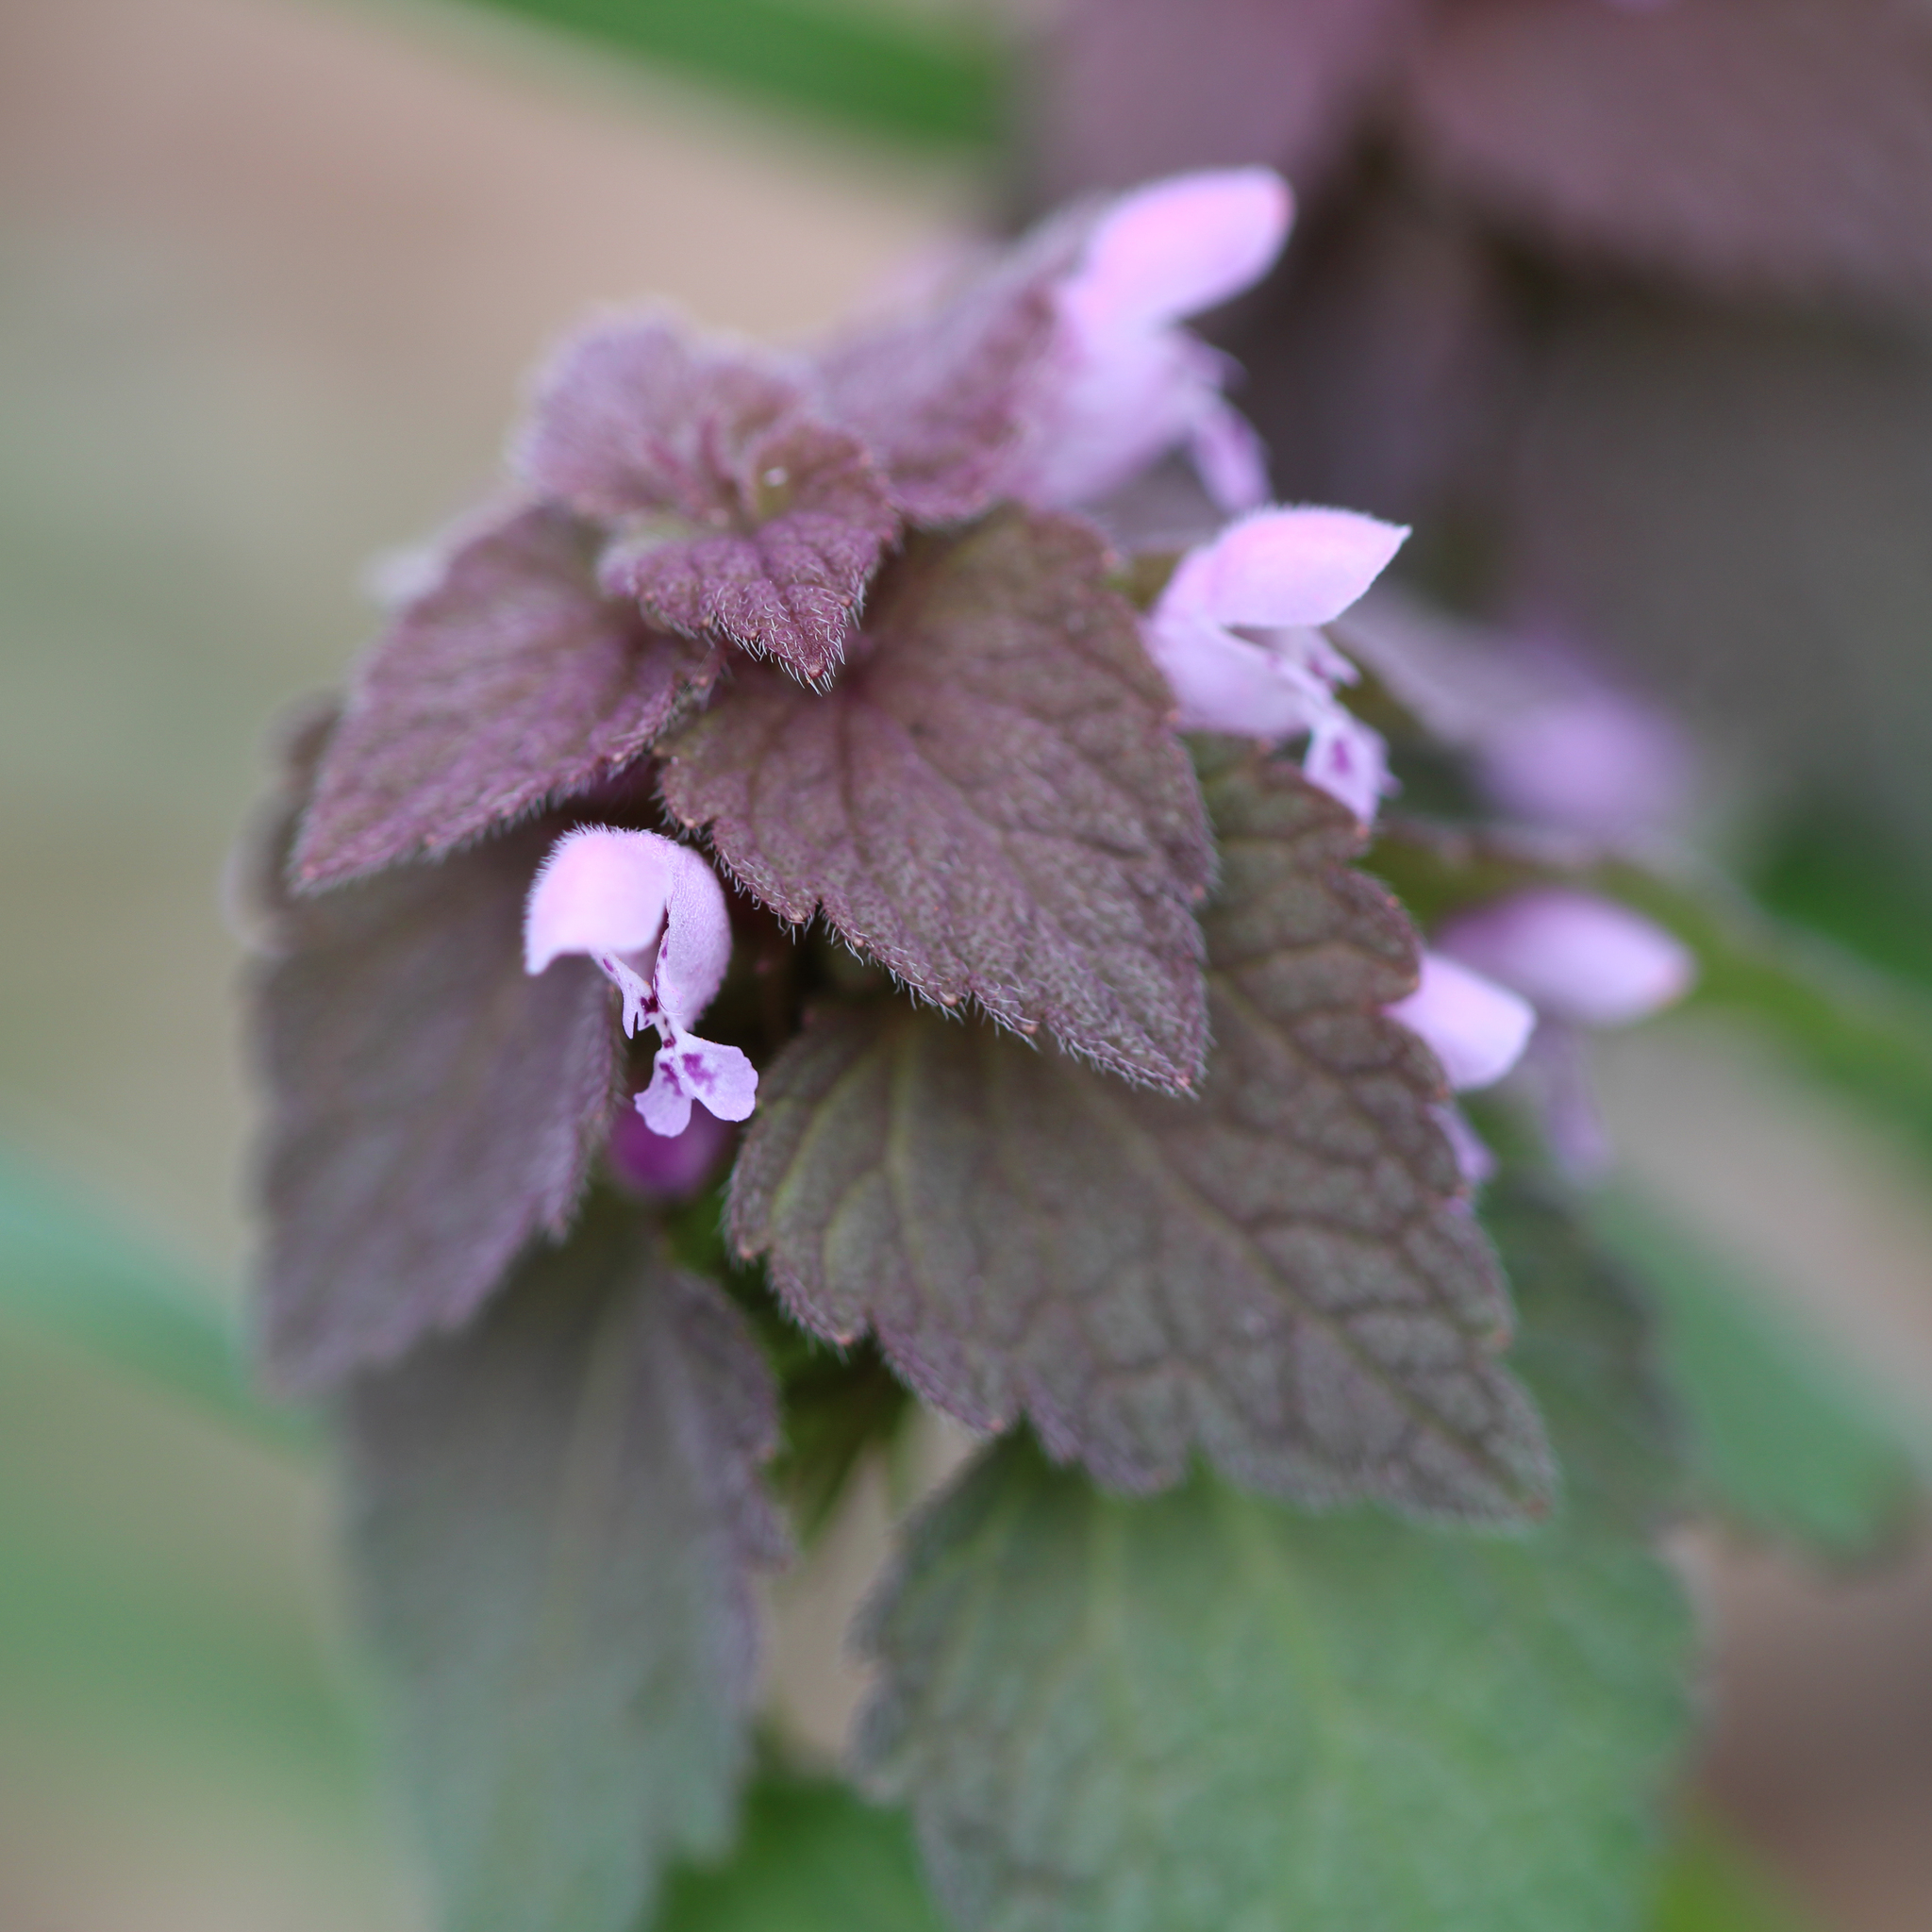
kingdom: Plantae
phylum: Tracheophyta
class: Magnoliopsida
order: Lamiales
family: Lamiaceae
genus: Lamium
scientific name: Lamium purpureum
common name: Red dead-nettle
